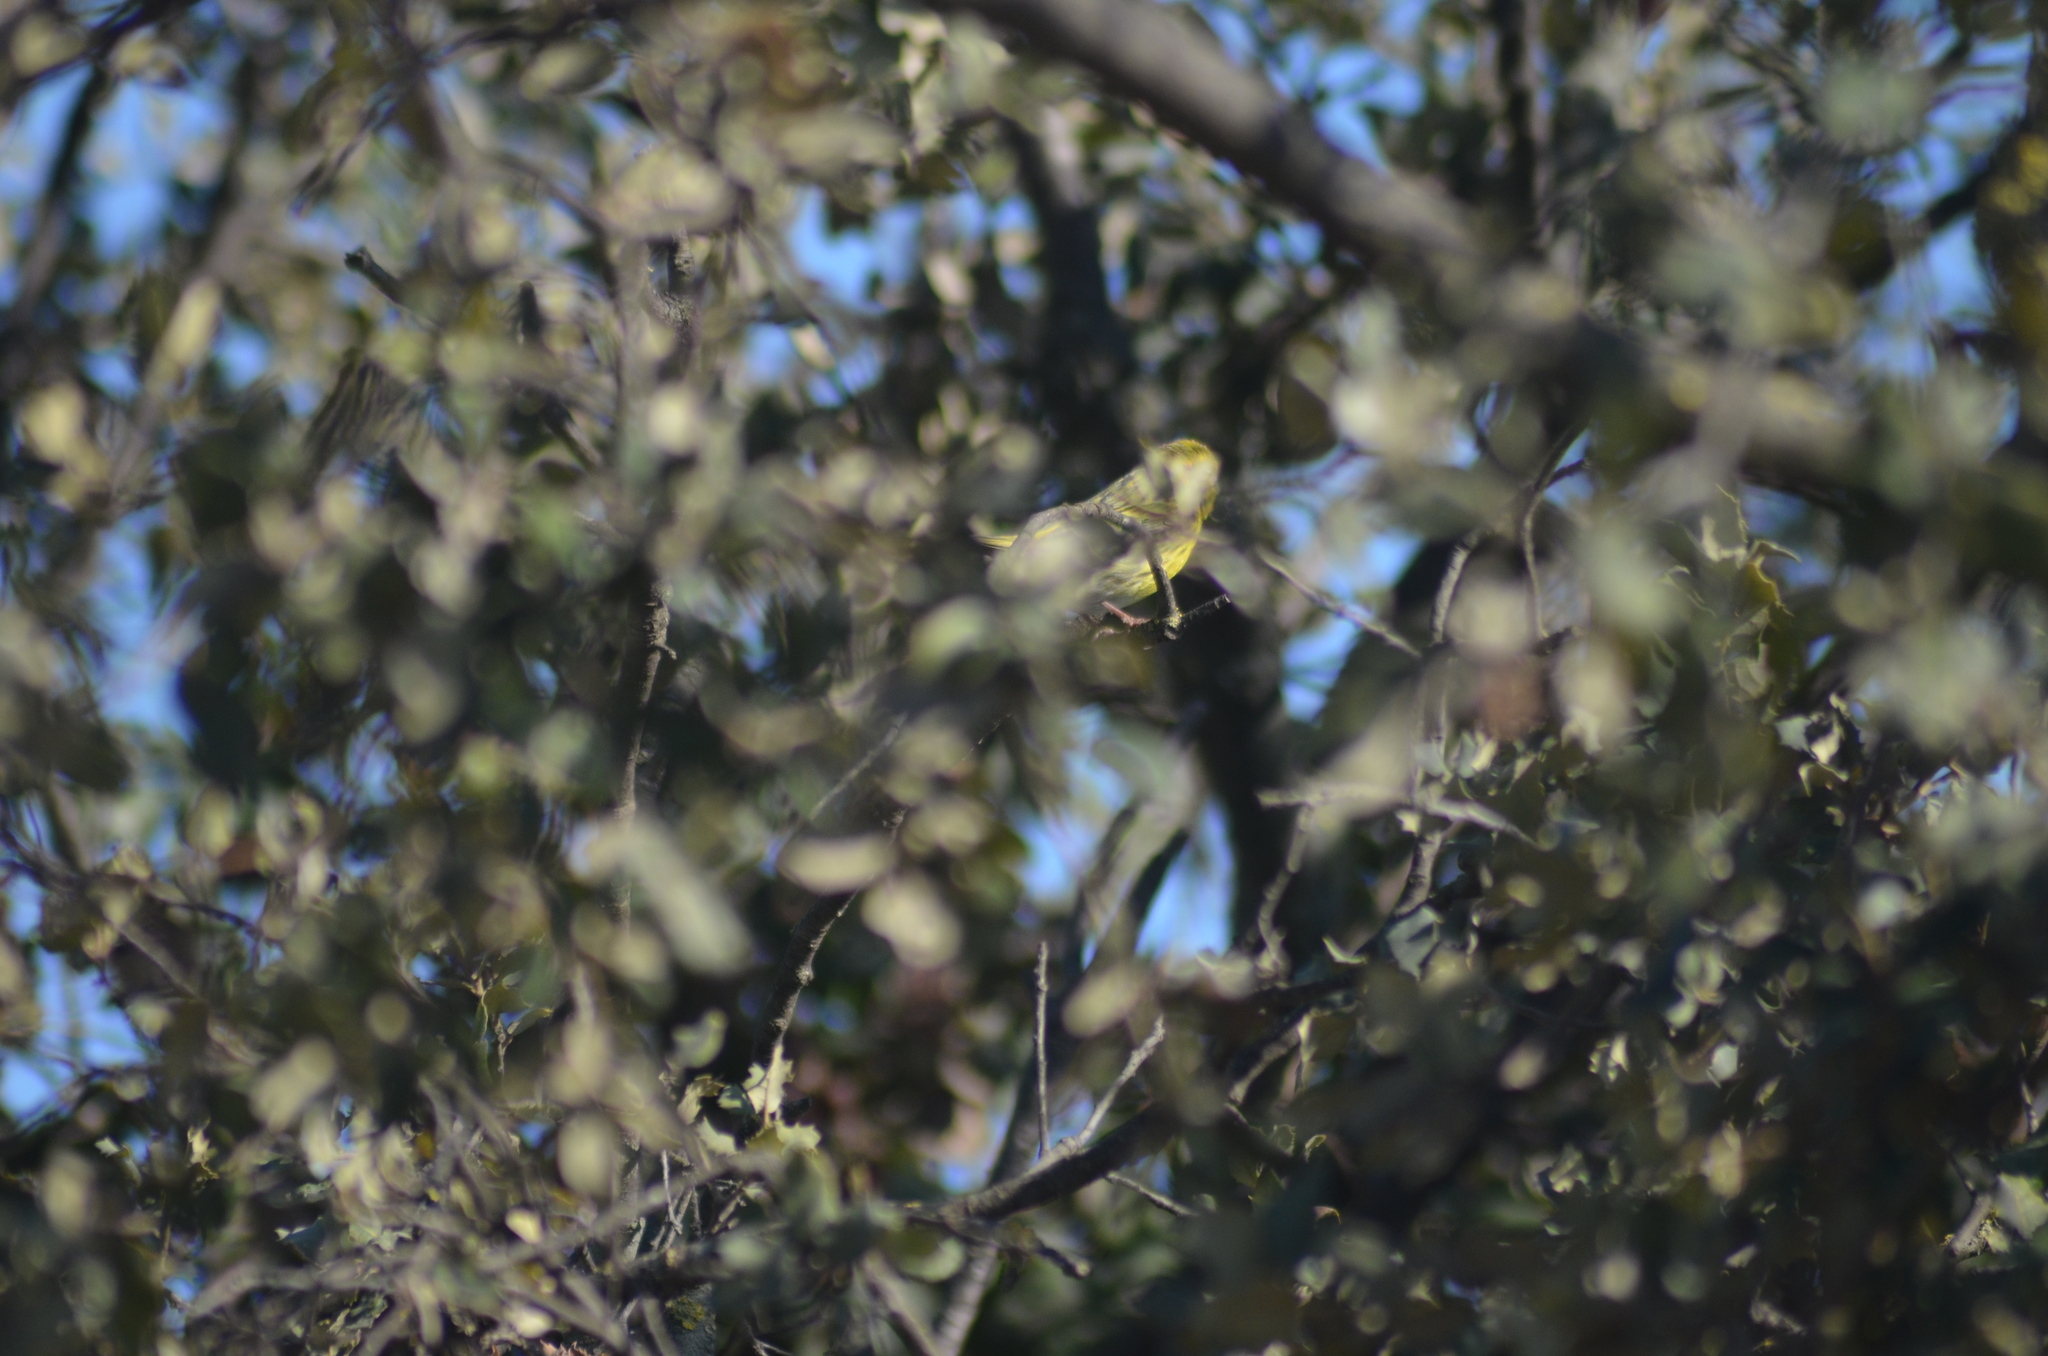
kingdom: Animalia
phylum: Chordata
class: Aves
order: Passeriformes
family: Fringillidae
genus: Serinus
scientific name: Serinus serinus
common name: European serin
